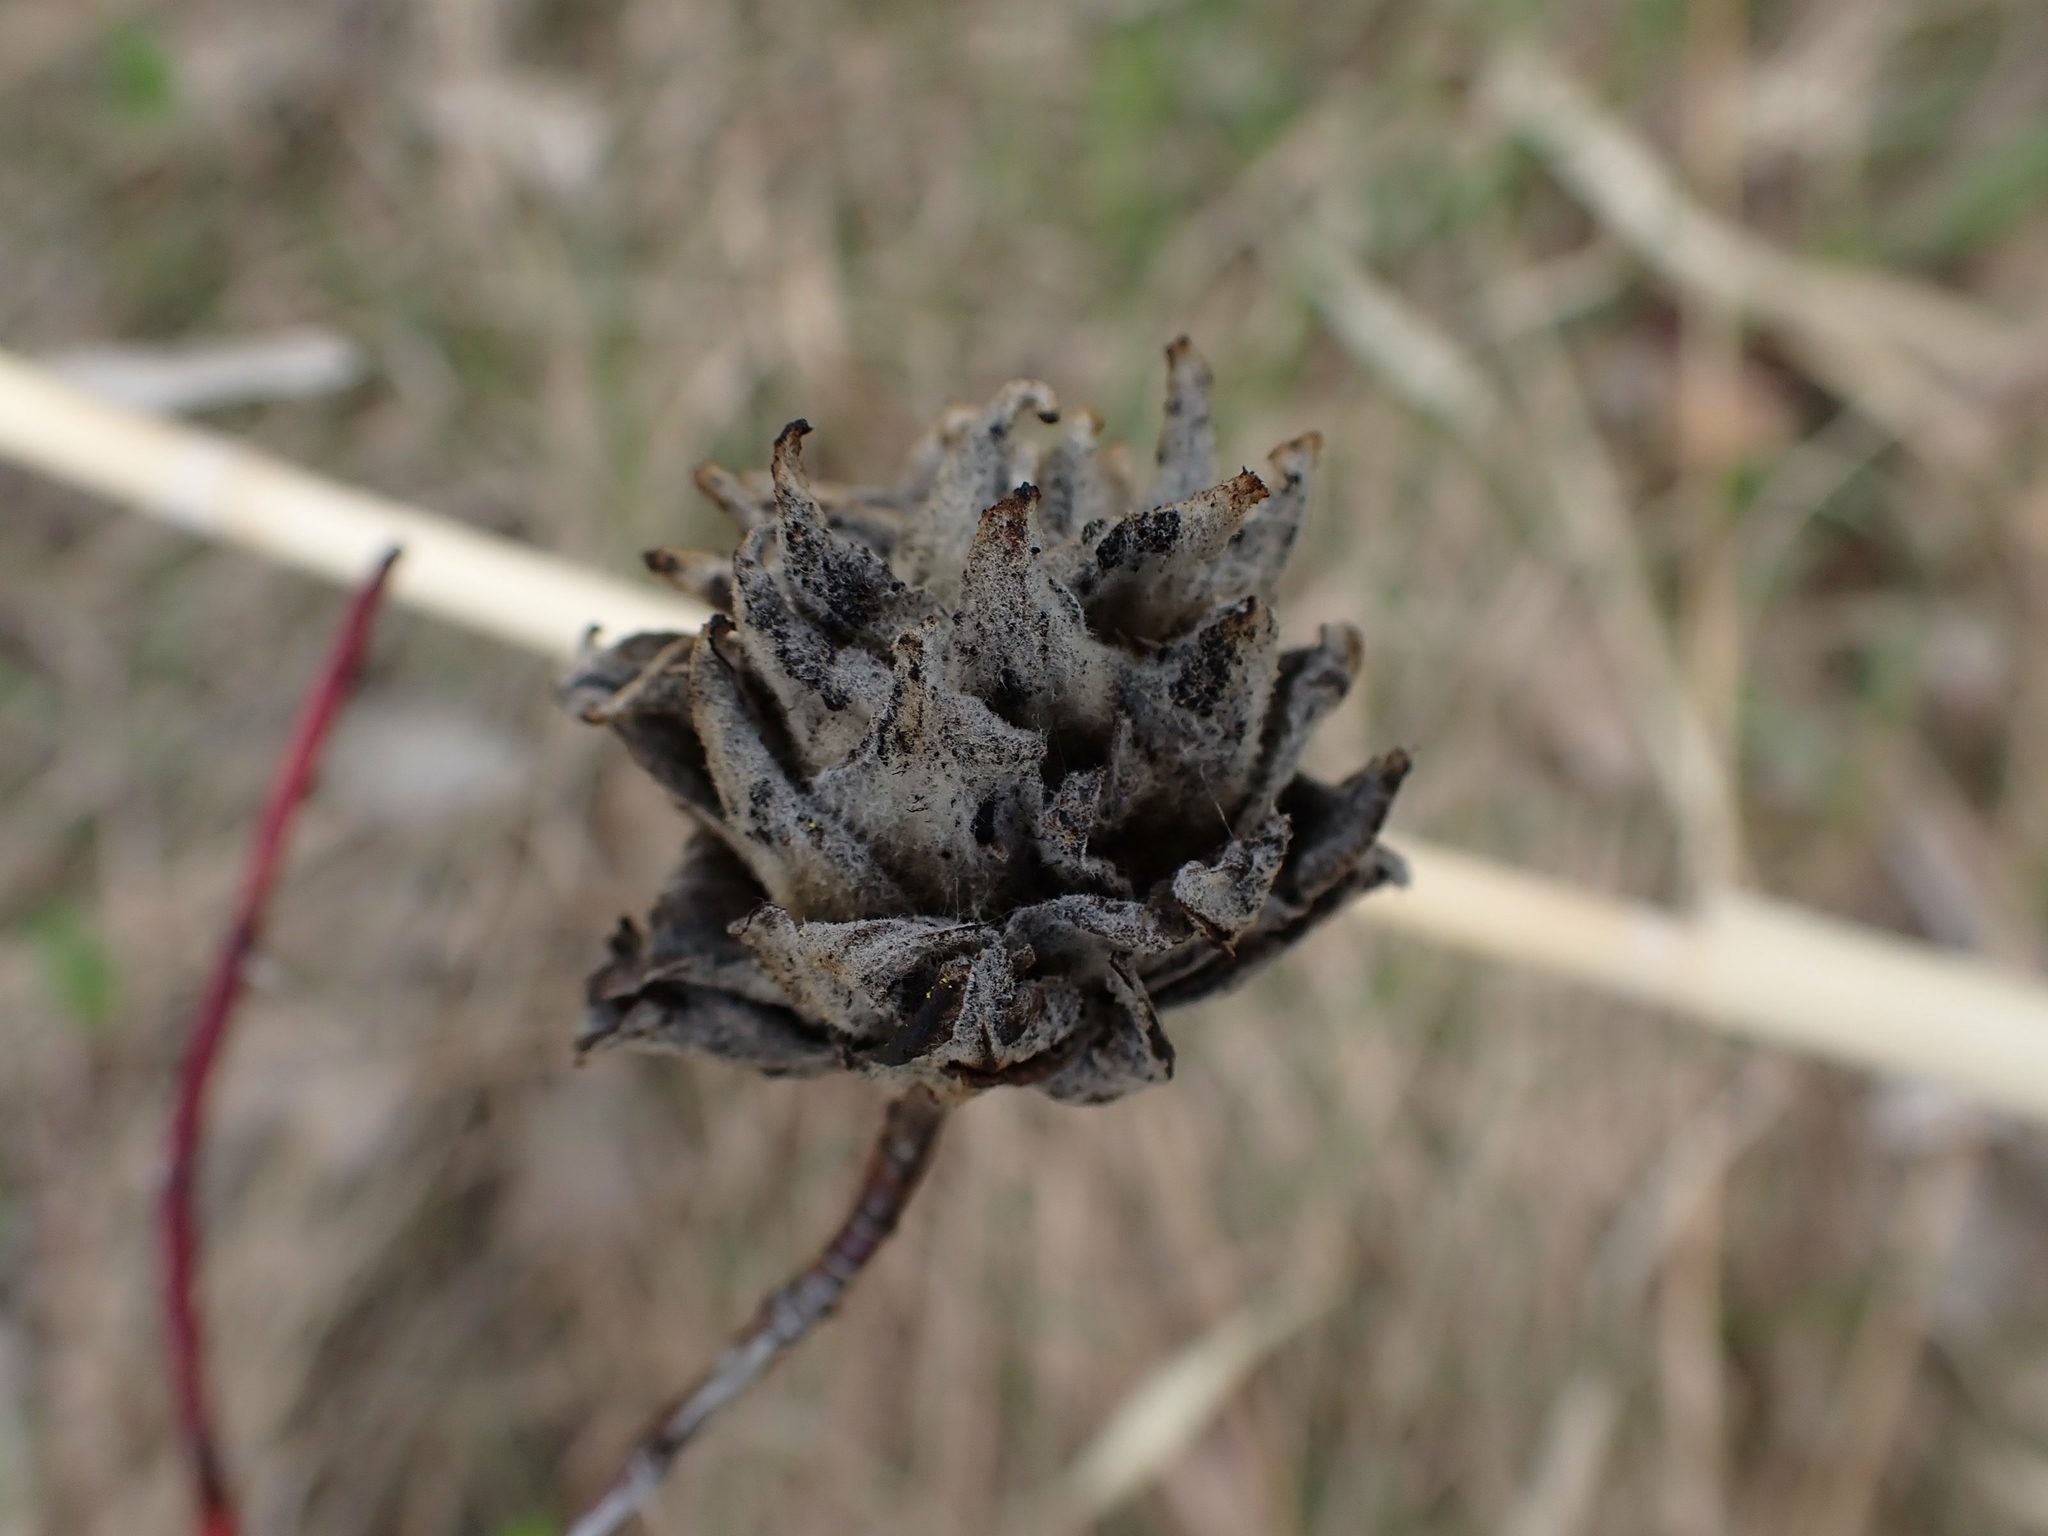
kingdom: Animalia
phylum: Arthropoda
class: Insecta
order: Diptera
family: Cecidomyiidae
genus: Rabdophaga
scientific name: Rabdophaga rosacea
